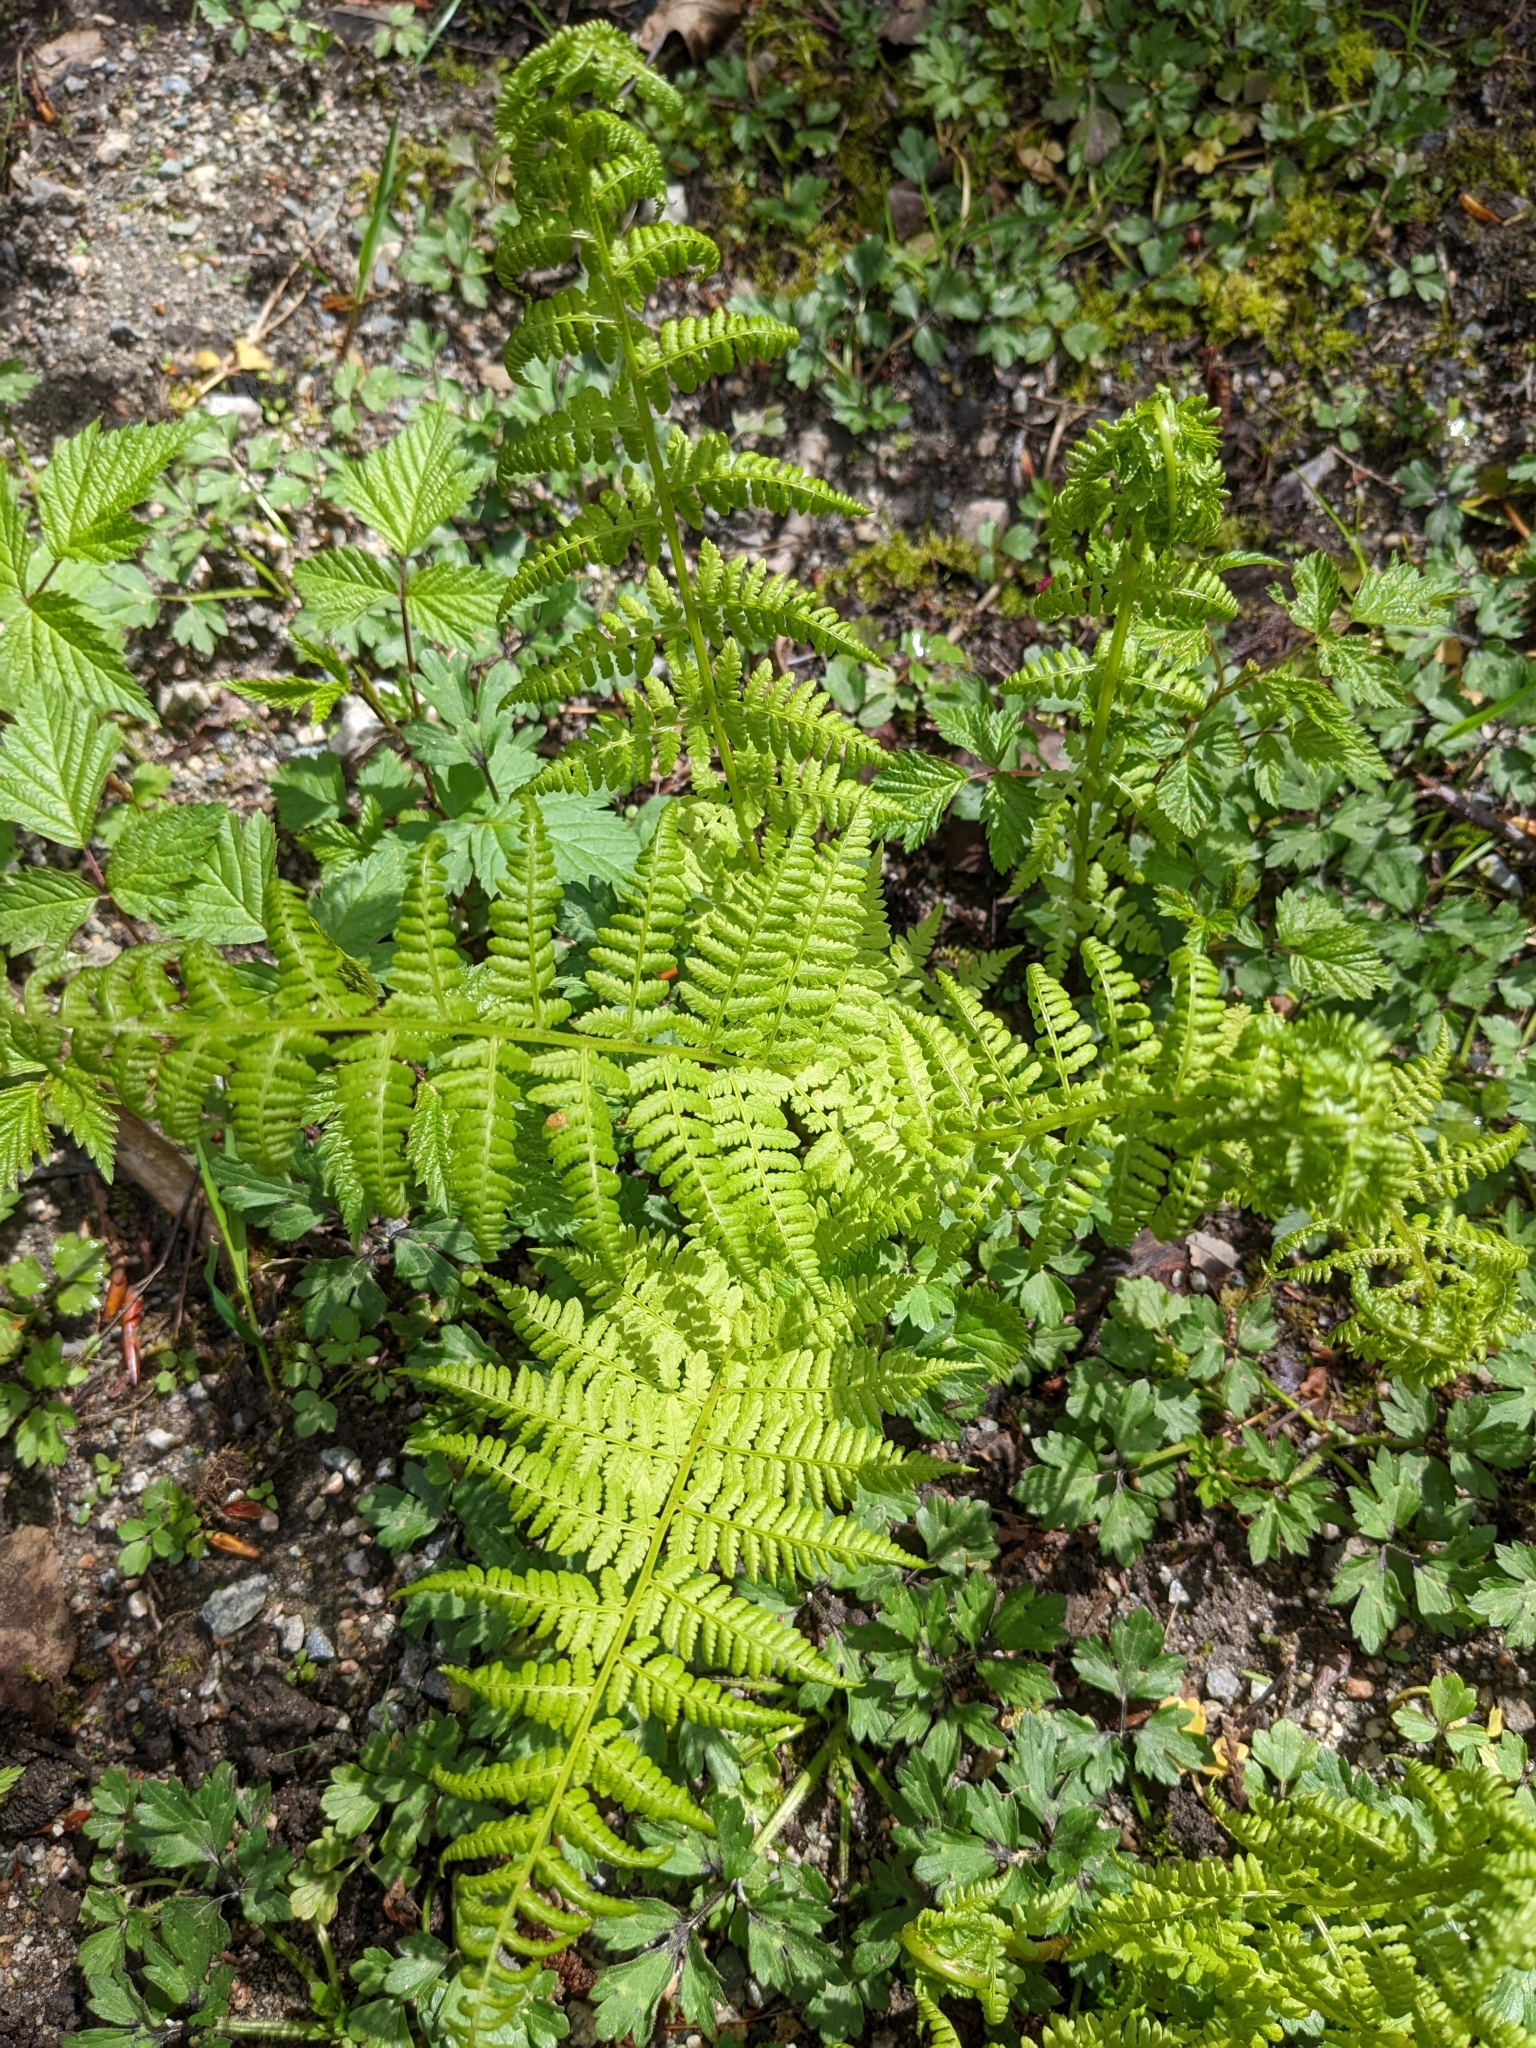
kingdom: Plantae
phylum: Tracheophyta
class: Polypodiopsida
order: Polypodiales
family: Athyriaceae
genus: Athyrium
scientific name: Athyrium filix-femina
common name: Lady fern
